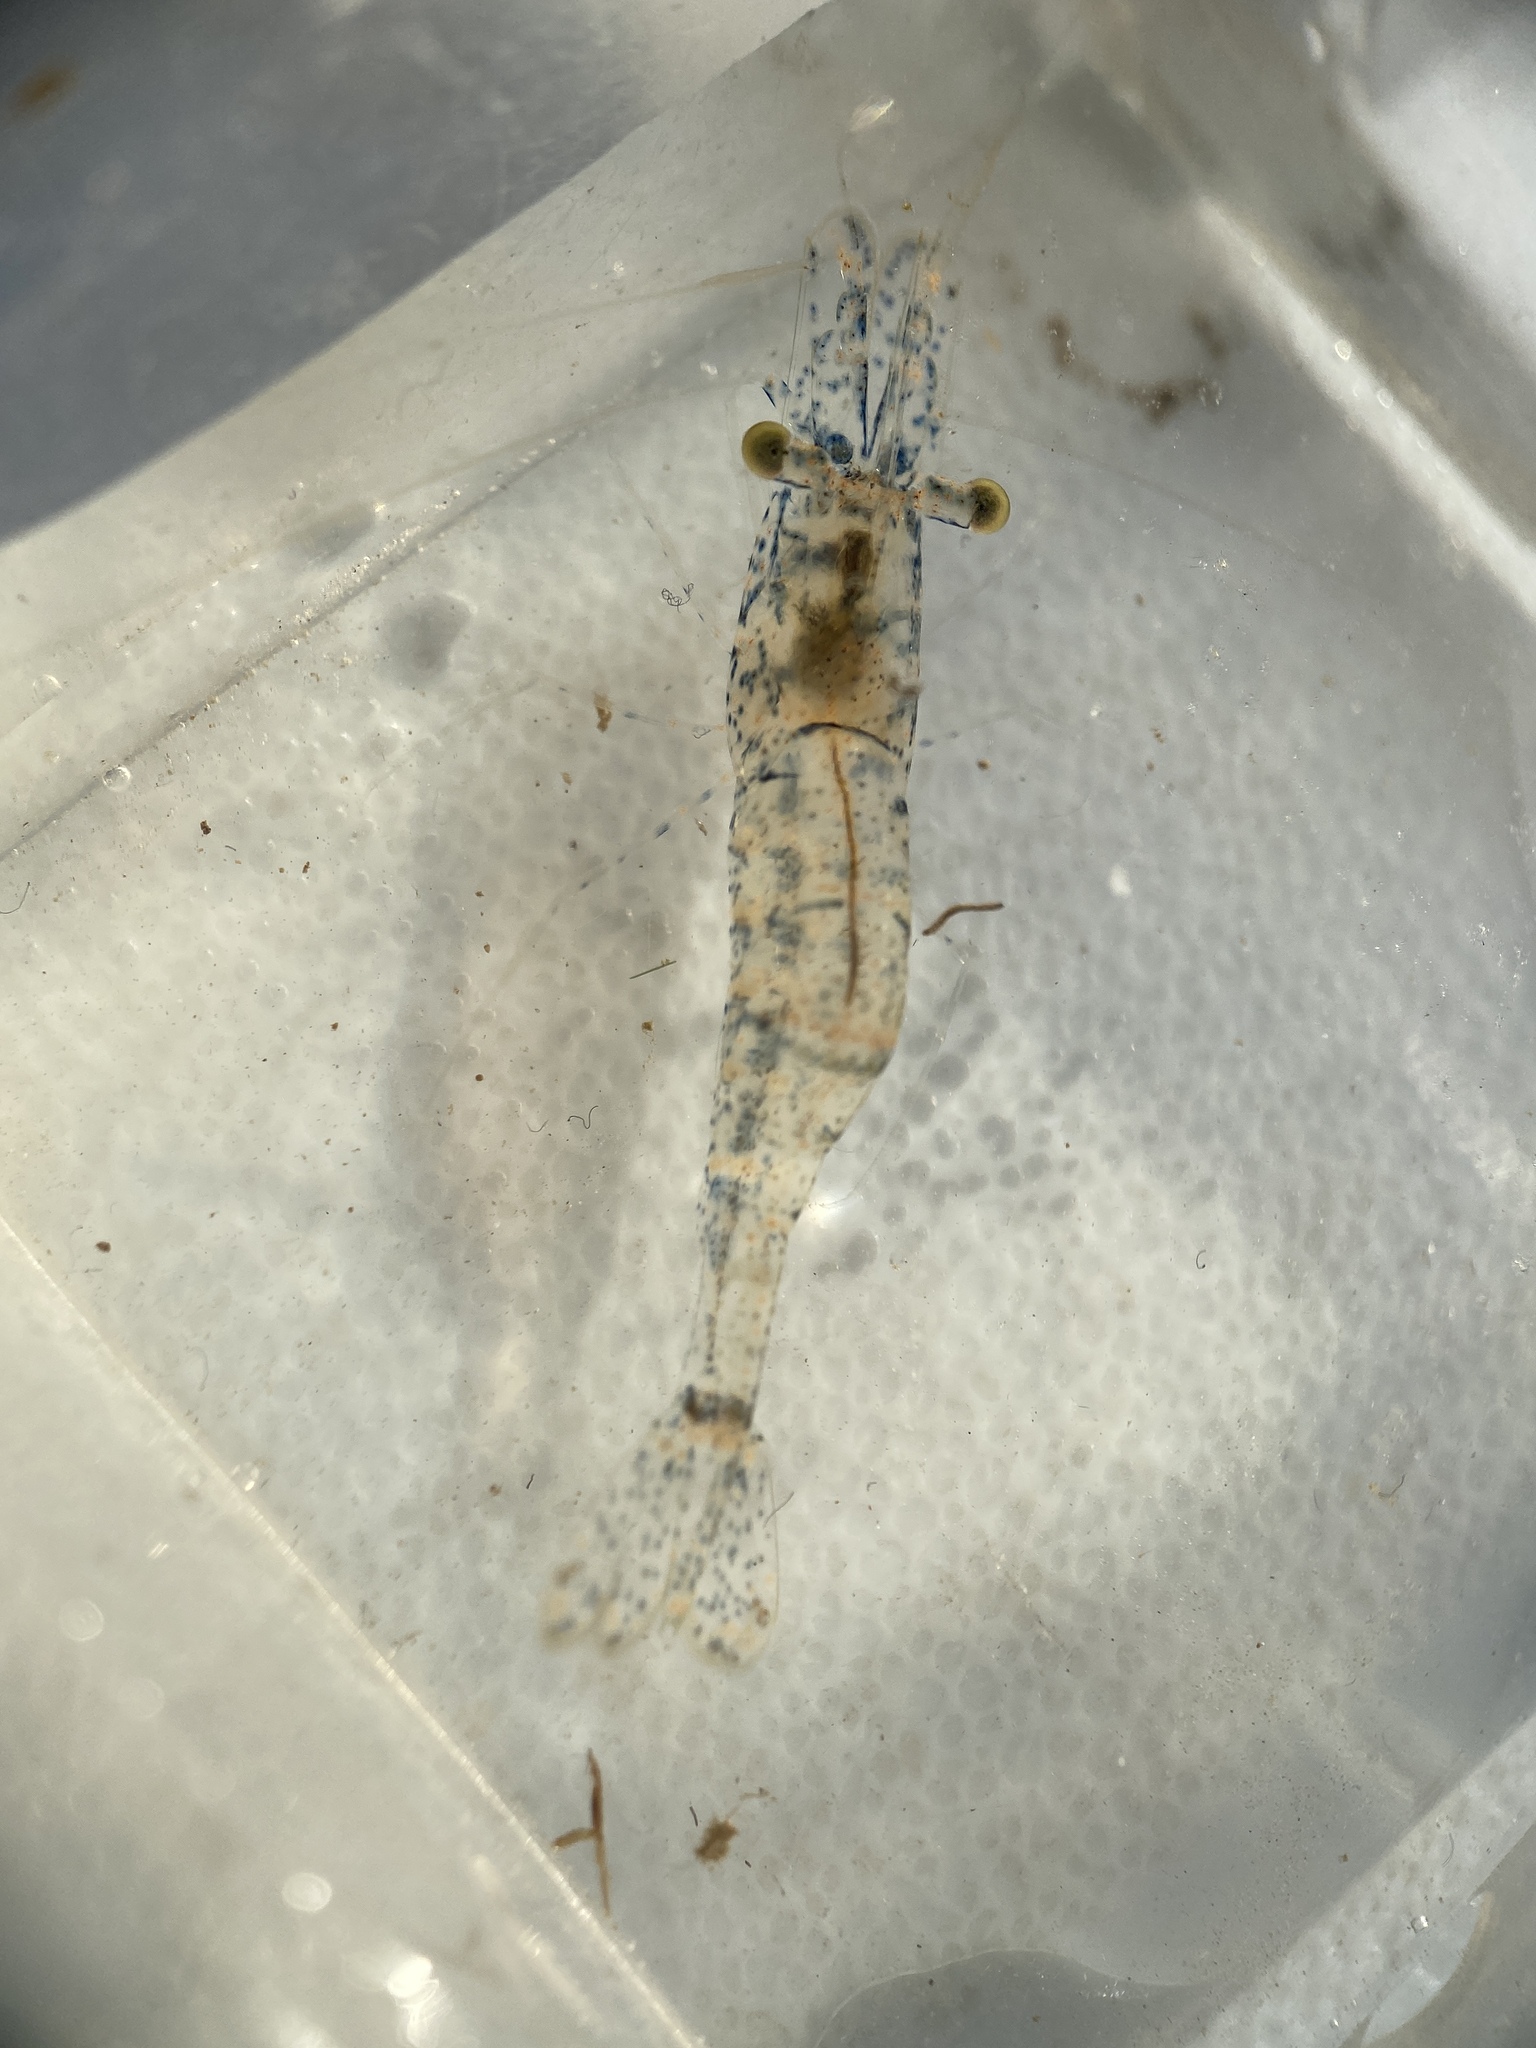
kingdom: Animalia
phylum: Arthropoda
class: Malacostraca
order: Decapoda
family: Palaemonidae
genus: Palaemon
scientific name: Palaemon kadiakensis
